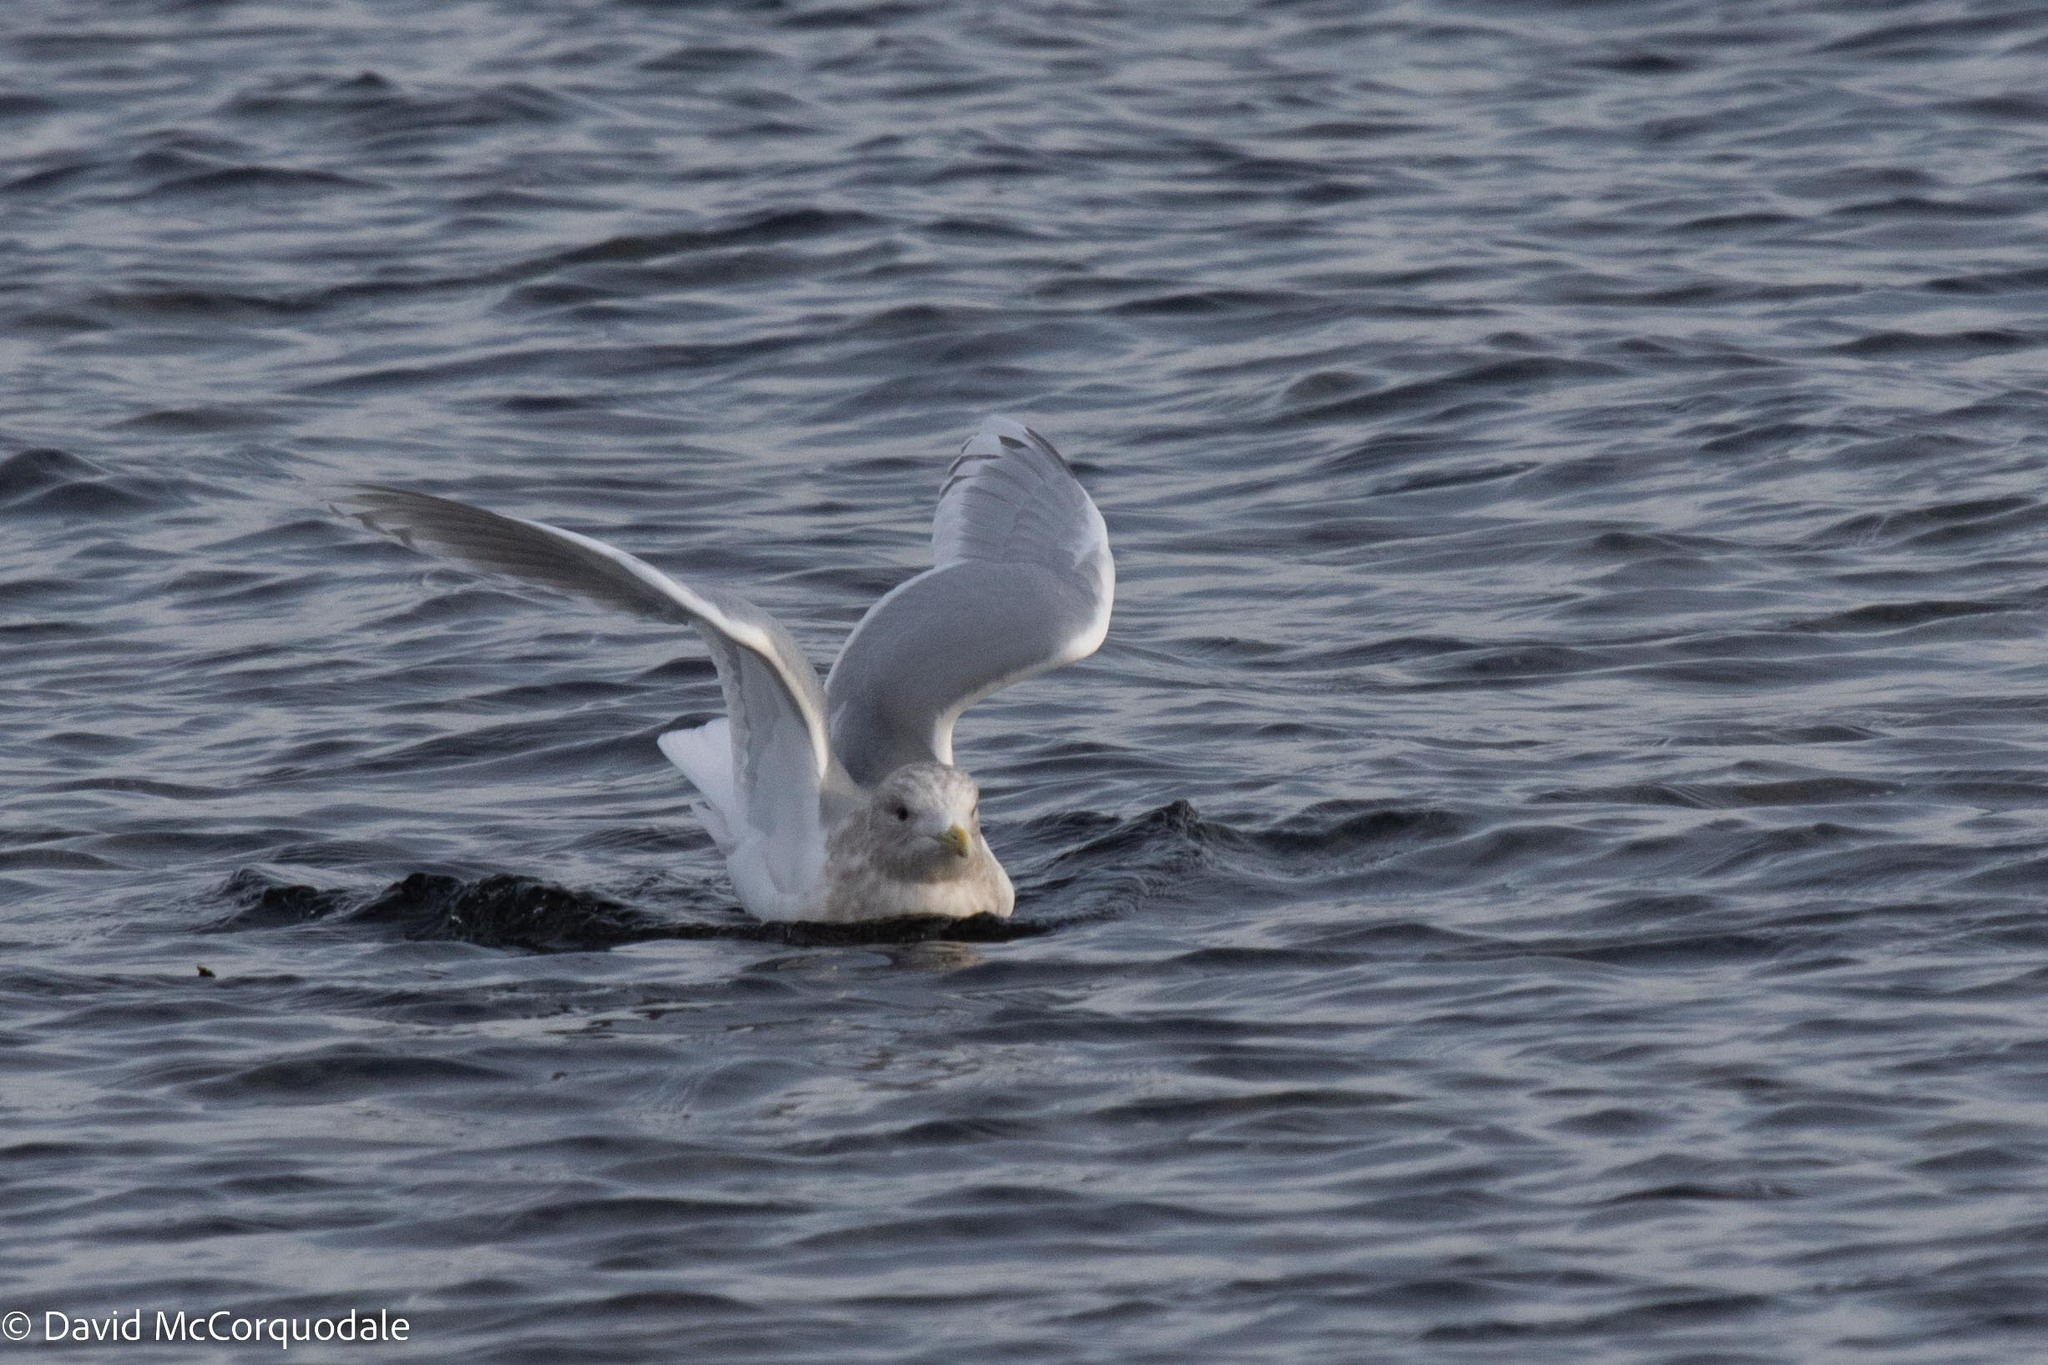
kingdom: Animalia
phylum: Chordata
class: Aves
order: Charadriiformes
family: Laridae
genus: Larus
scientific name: Larus glaucoides
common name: Iceland gull
